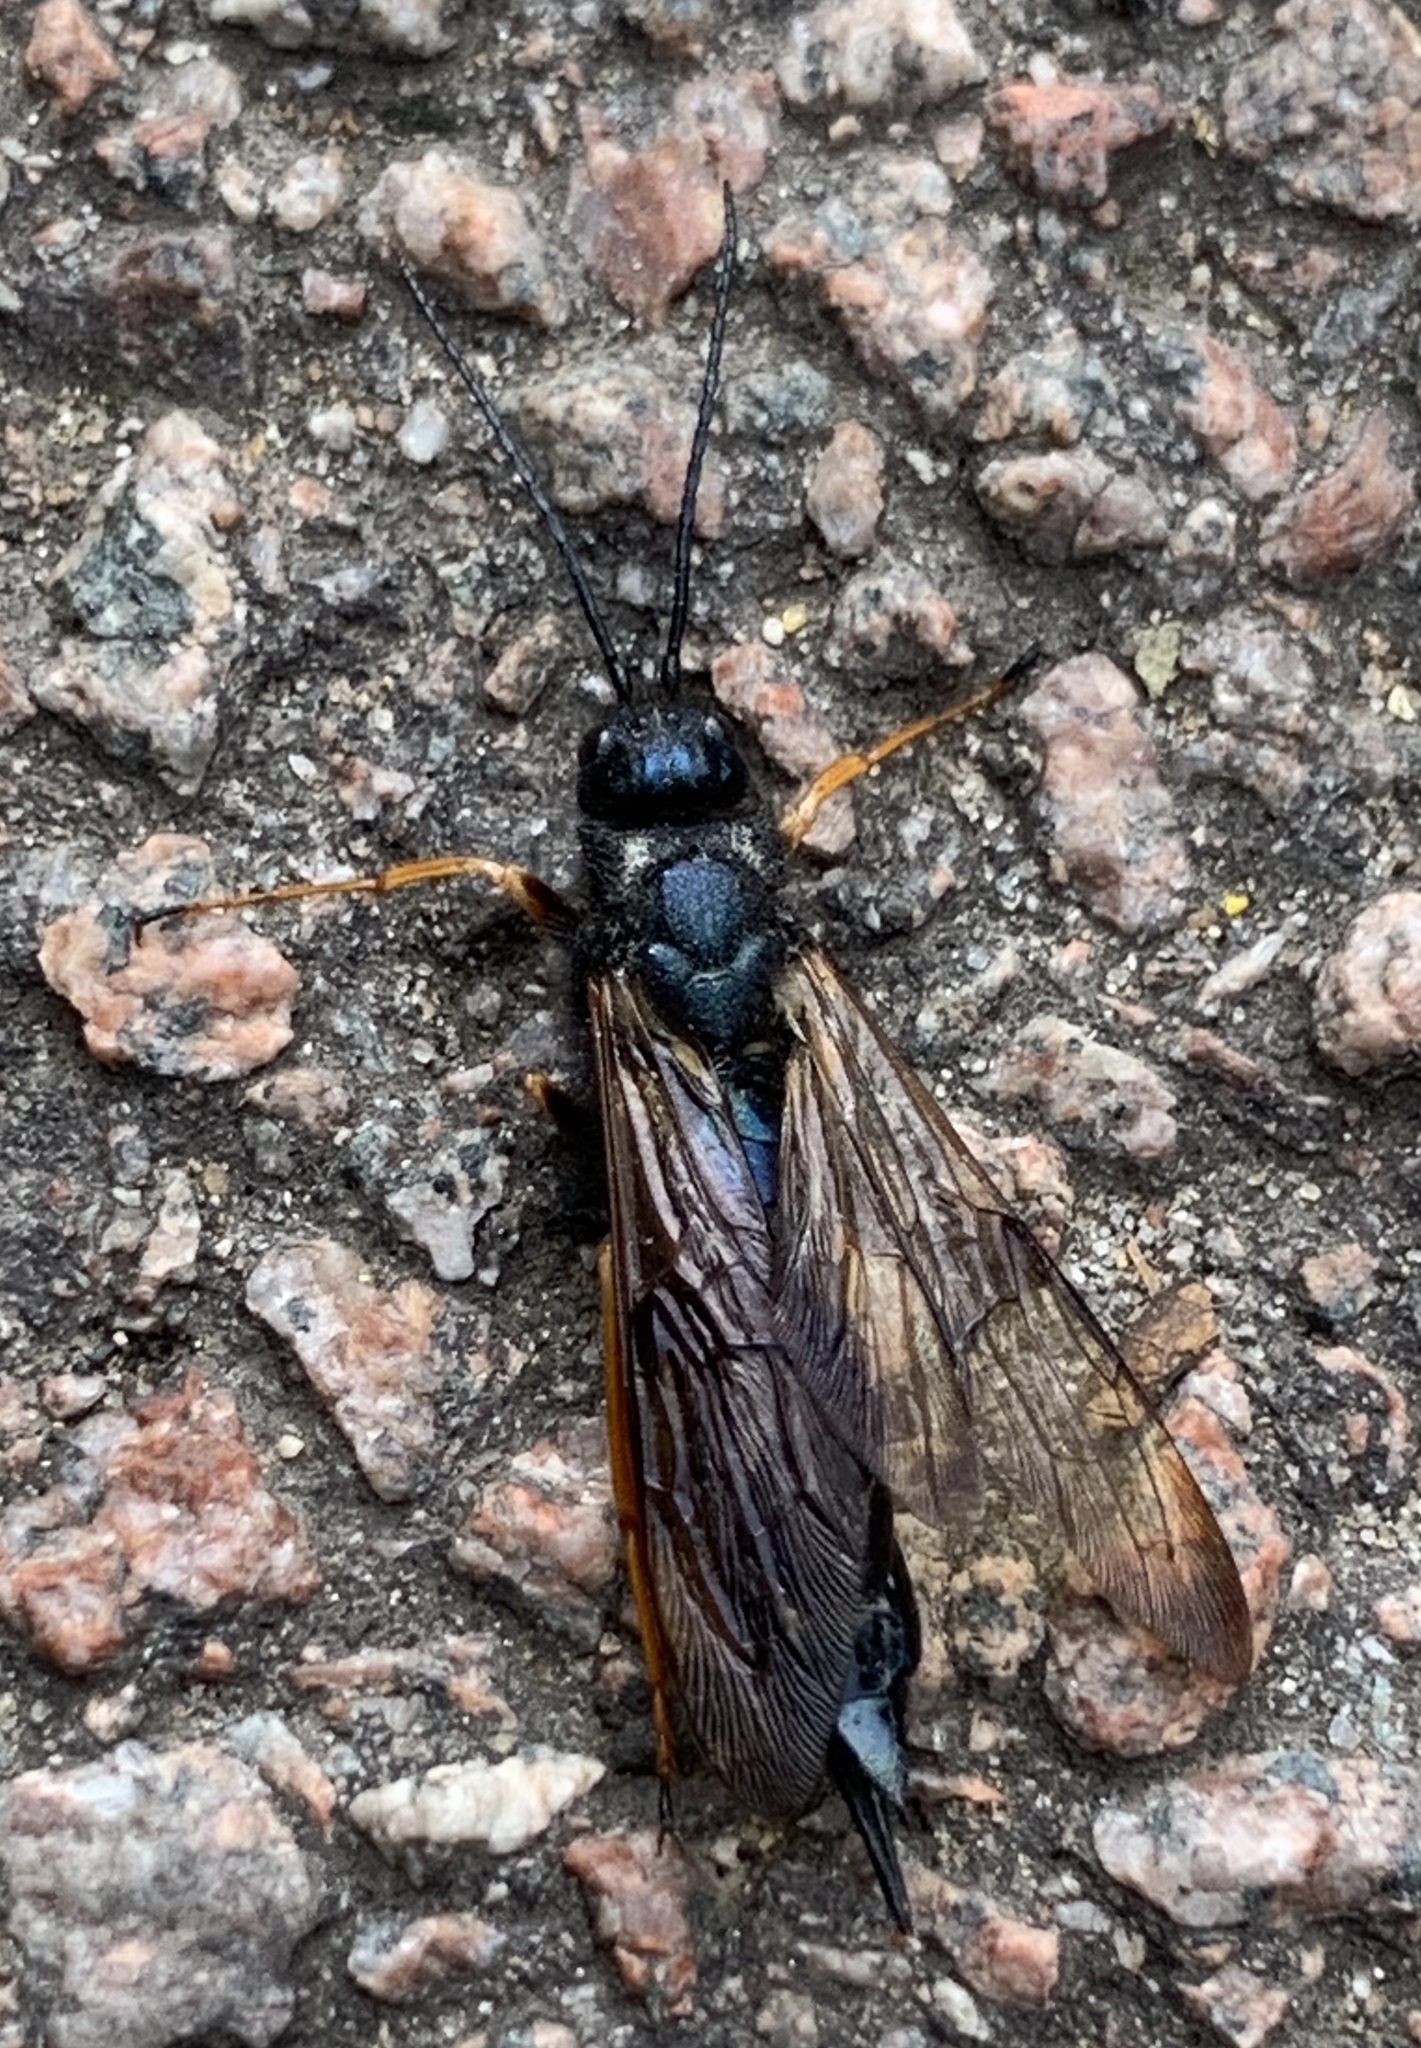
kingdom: Animalia
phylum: Arthropoda
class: Insecta
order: Hymenoptera
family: Siricidae
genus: Sirex
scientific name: Sirex noctilio
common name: Woodwasp
